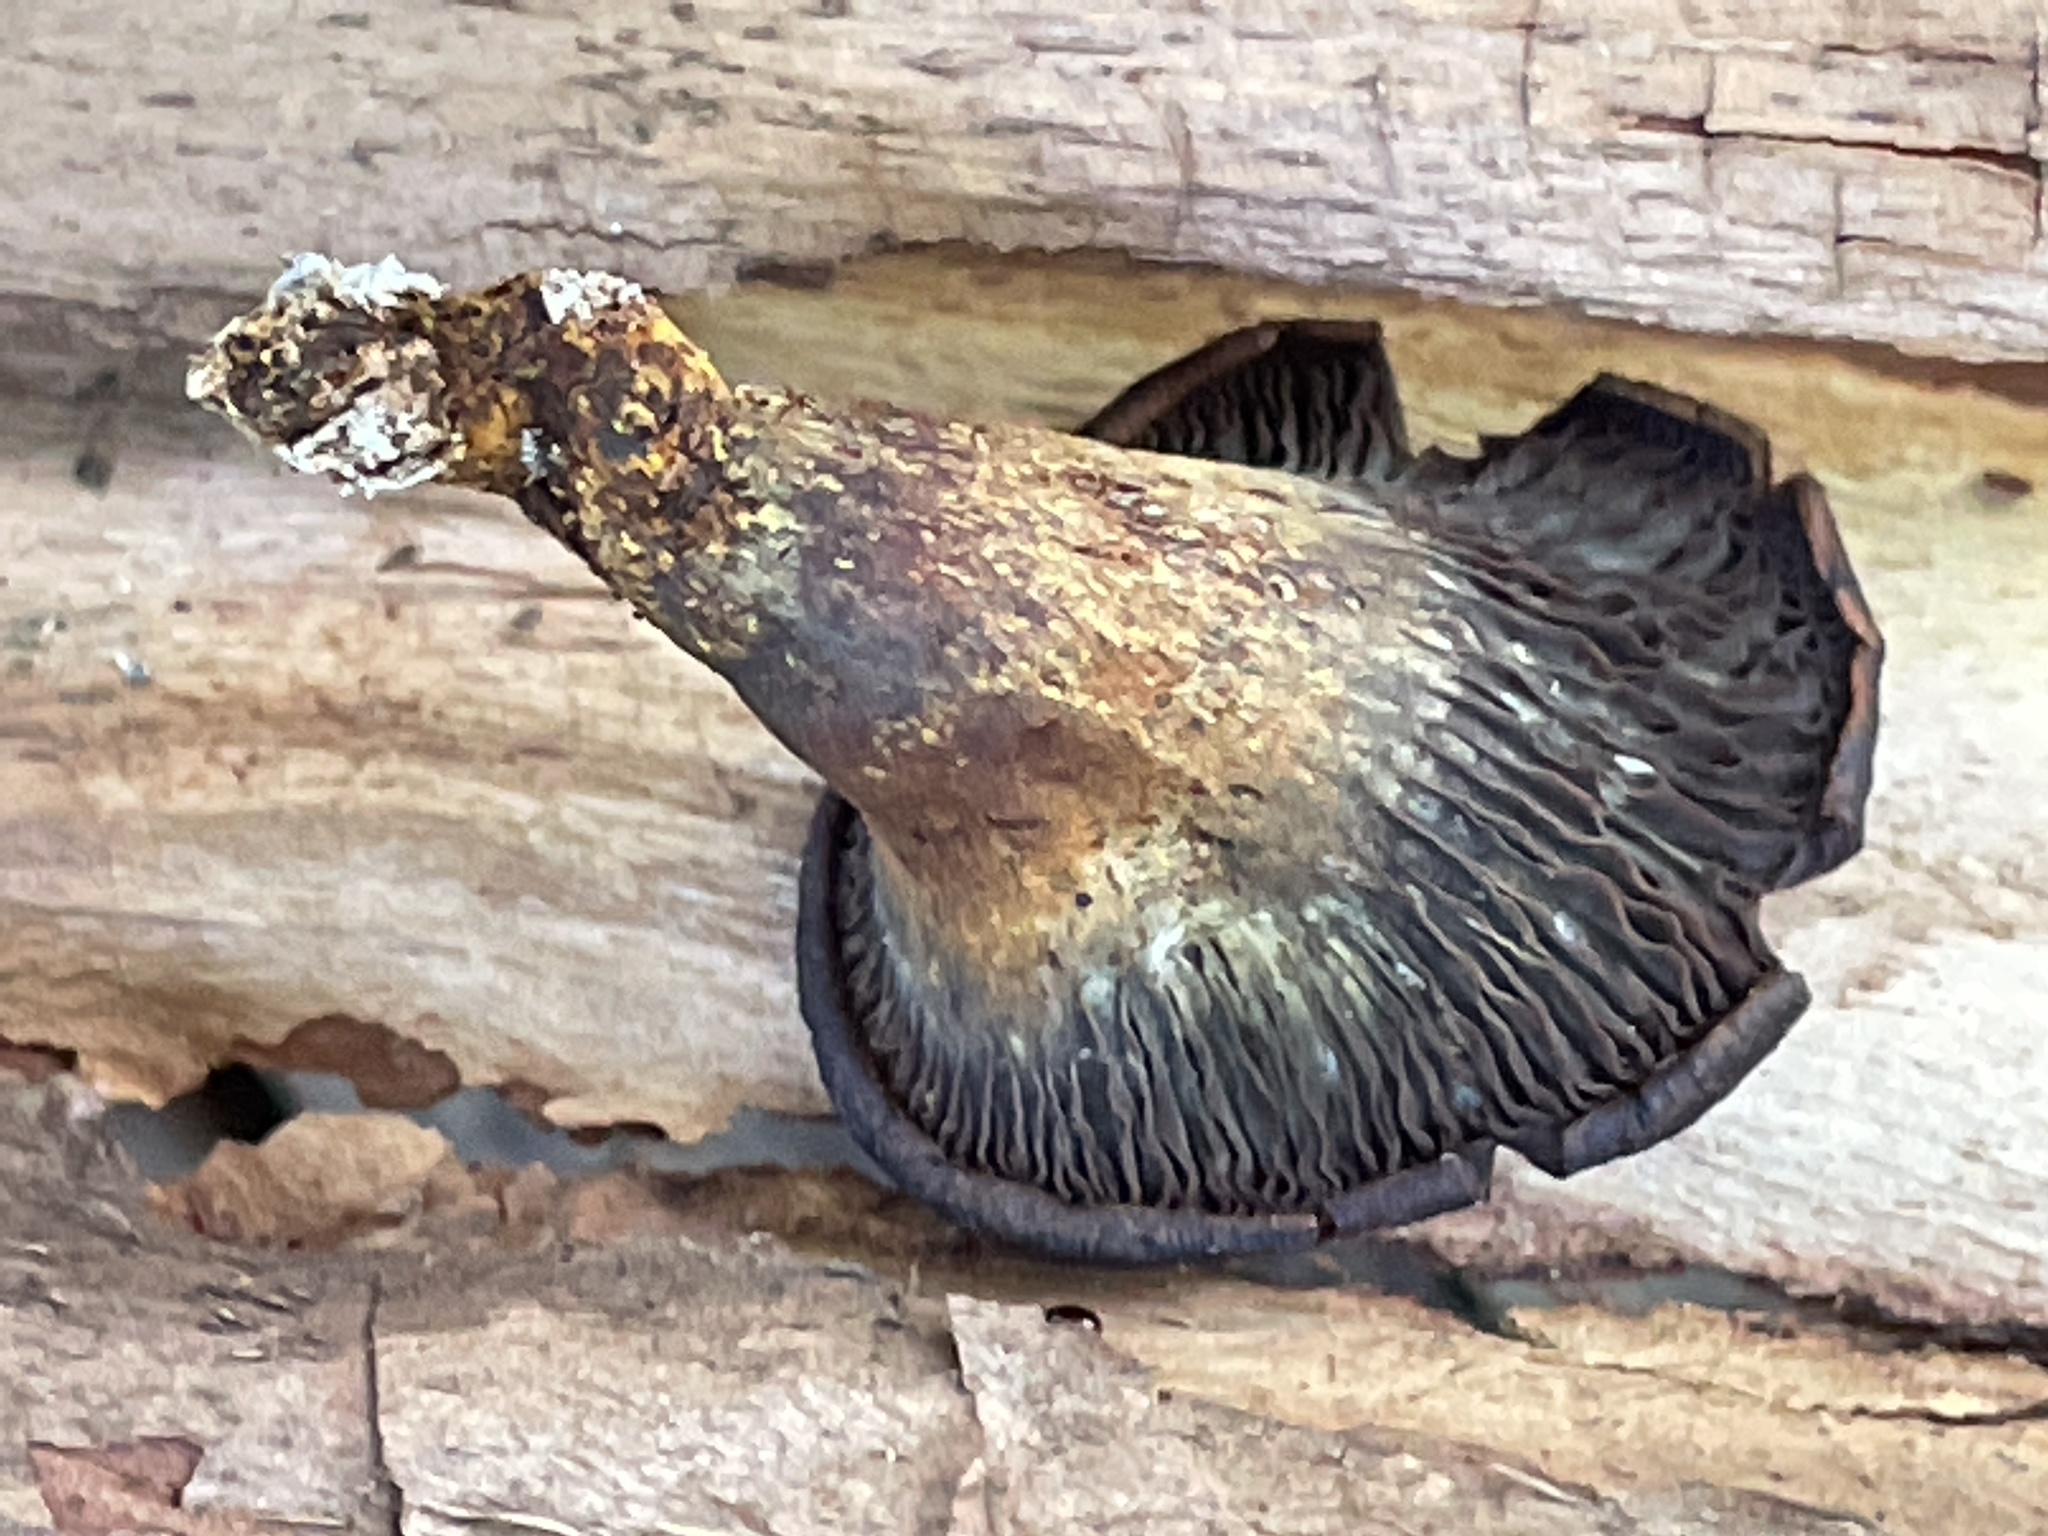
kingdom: Fungi
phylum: Basidiomycota
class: Agaricomycetes
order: Agaricales
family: Omphalotaceae
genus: Omphalotus
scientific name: Omphalotus olivascens
